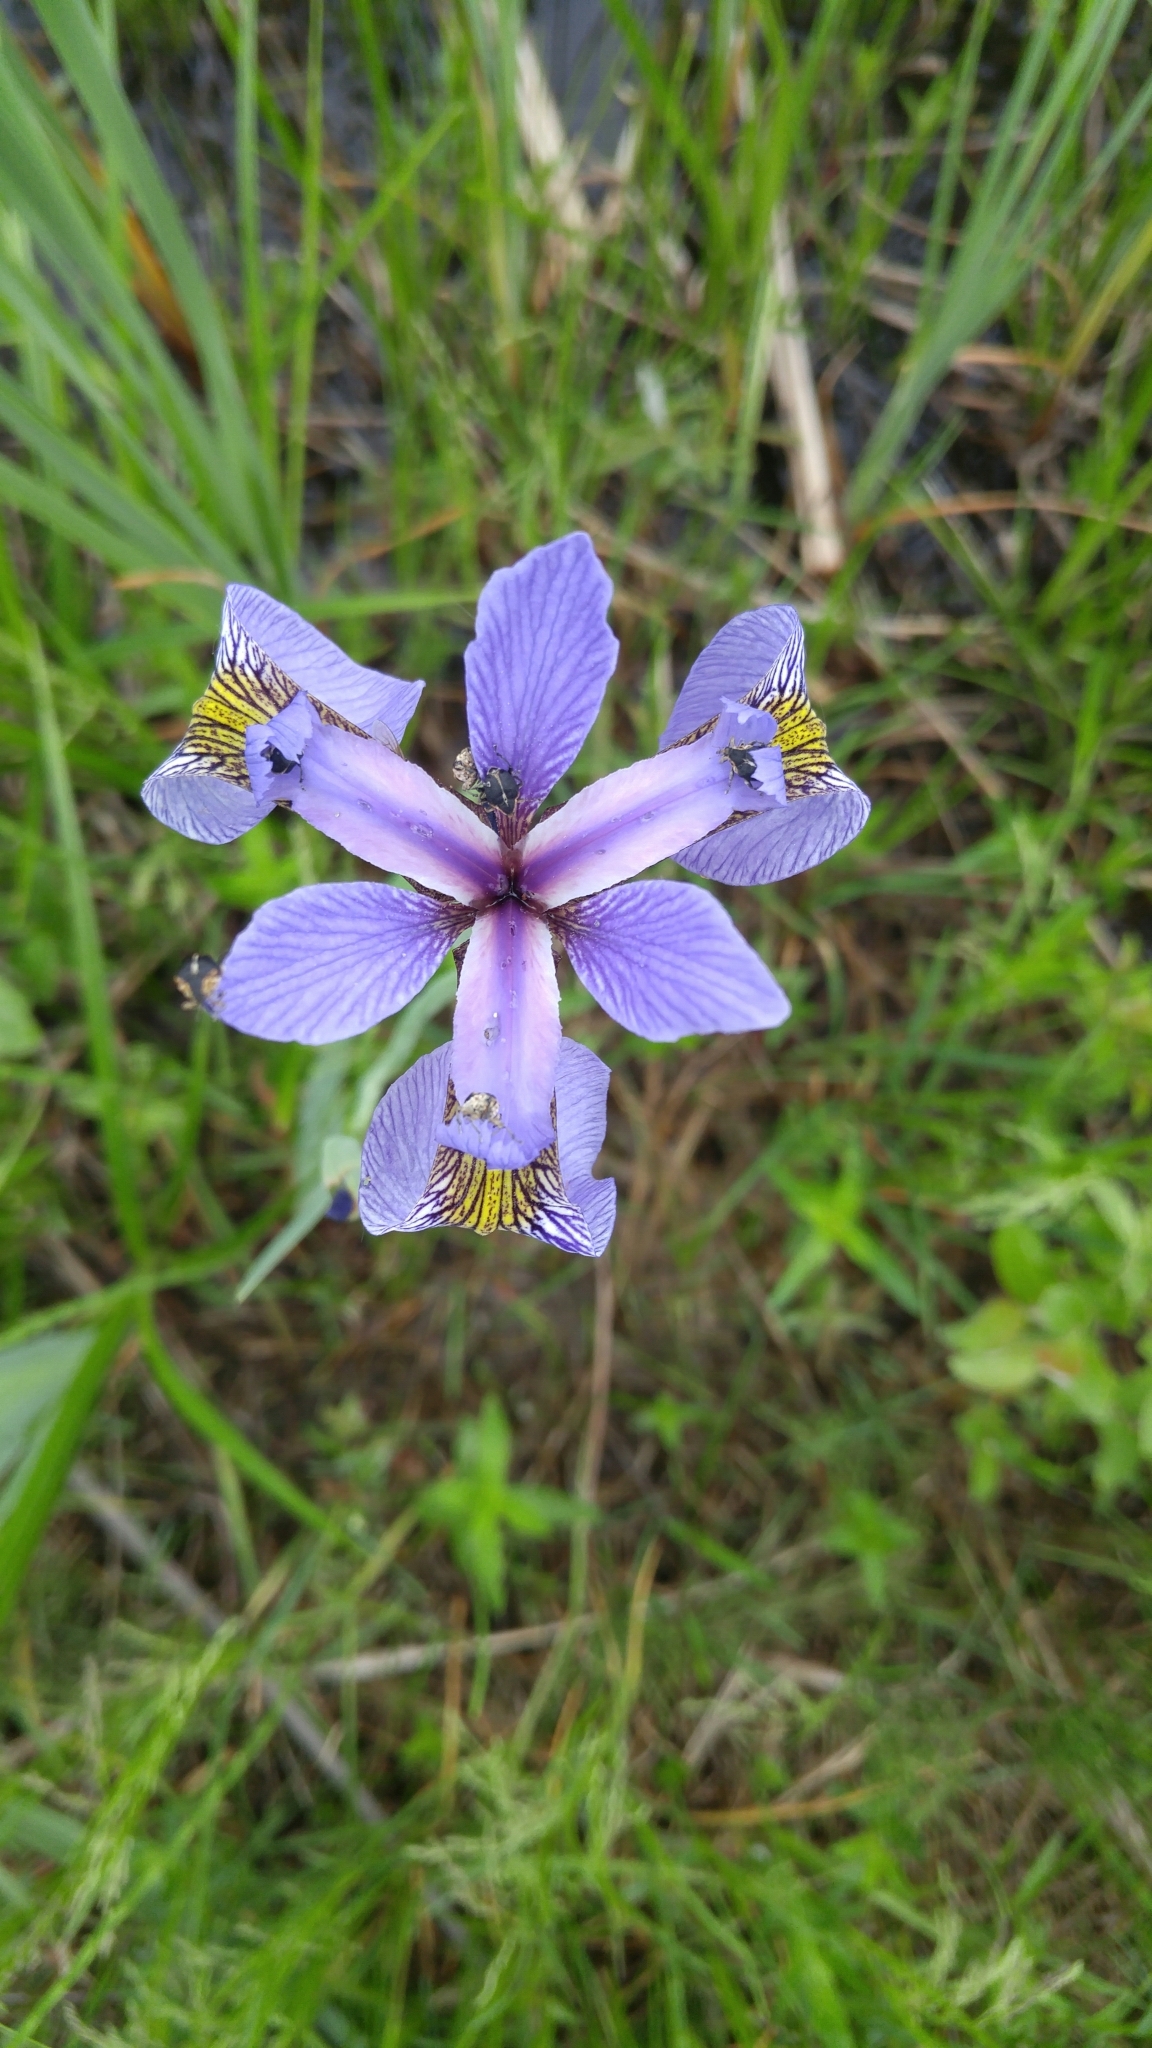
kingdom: Plantae
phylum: Tracheophyta
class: Liliopsida
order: Asparagales
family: Iridaceae
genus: Iris
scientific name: Iris versicolor
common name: Purple iris
